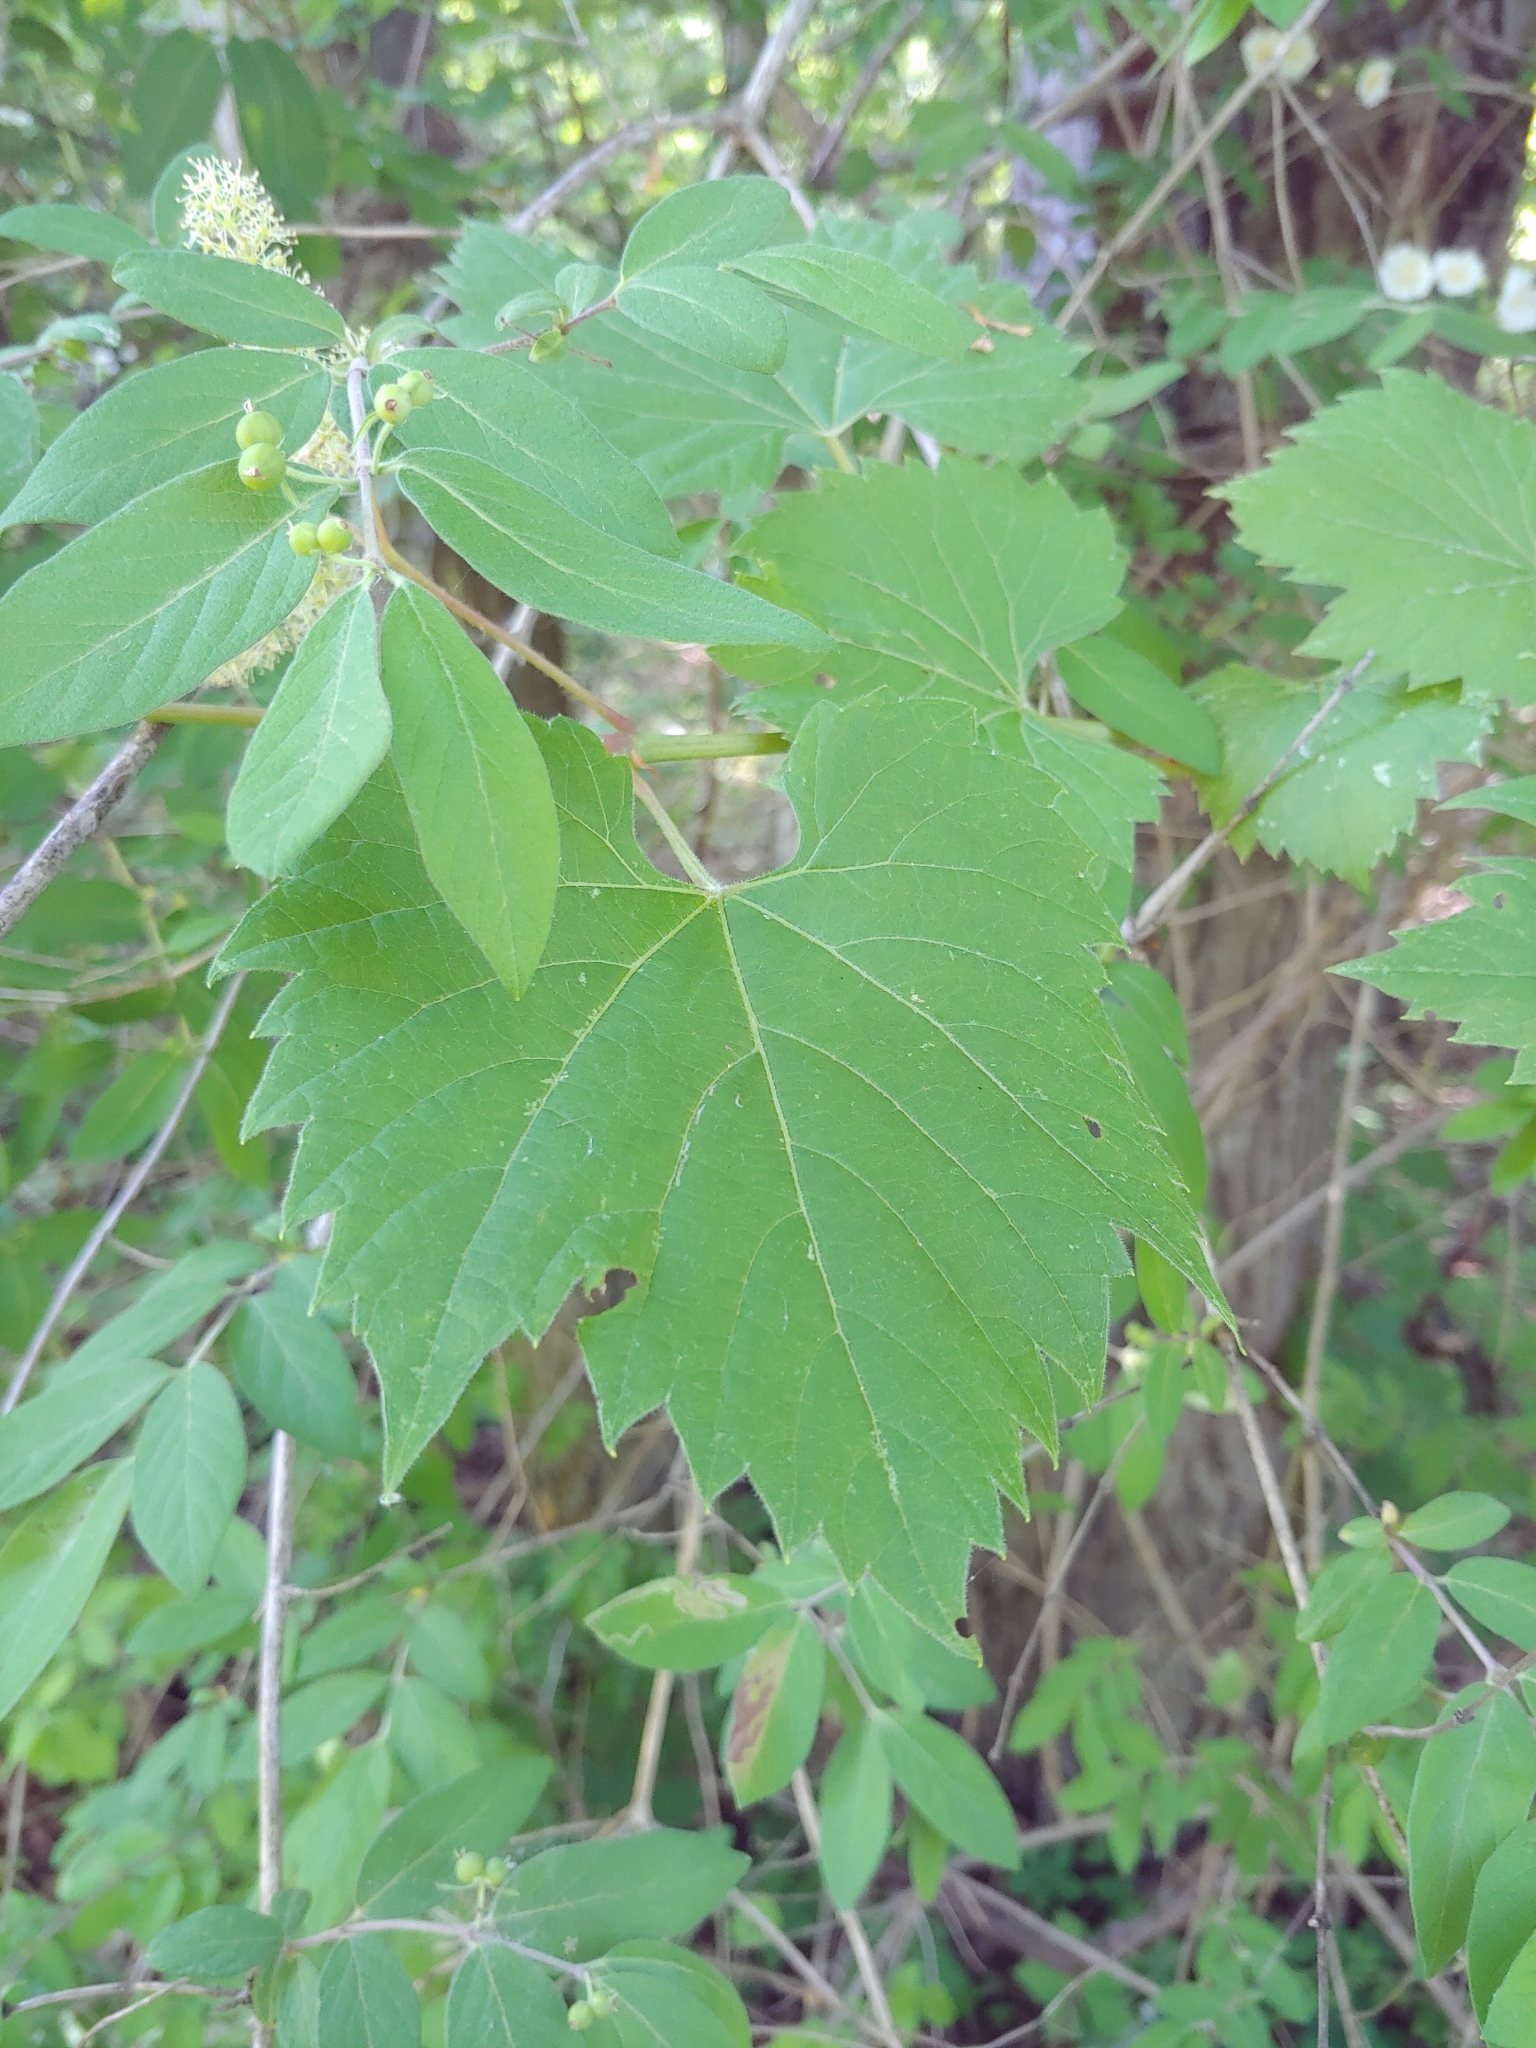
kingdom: Plantae
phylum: Tracheophyta
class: Magnoliopsida
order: Vitales
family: Vitaceae
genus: Vitis
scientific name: Vitis riparia
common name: Frost grape
